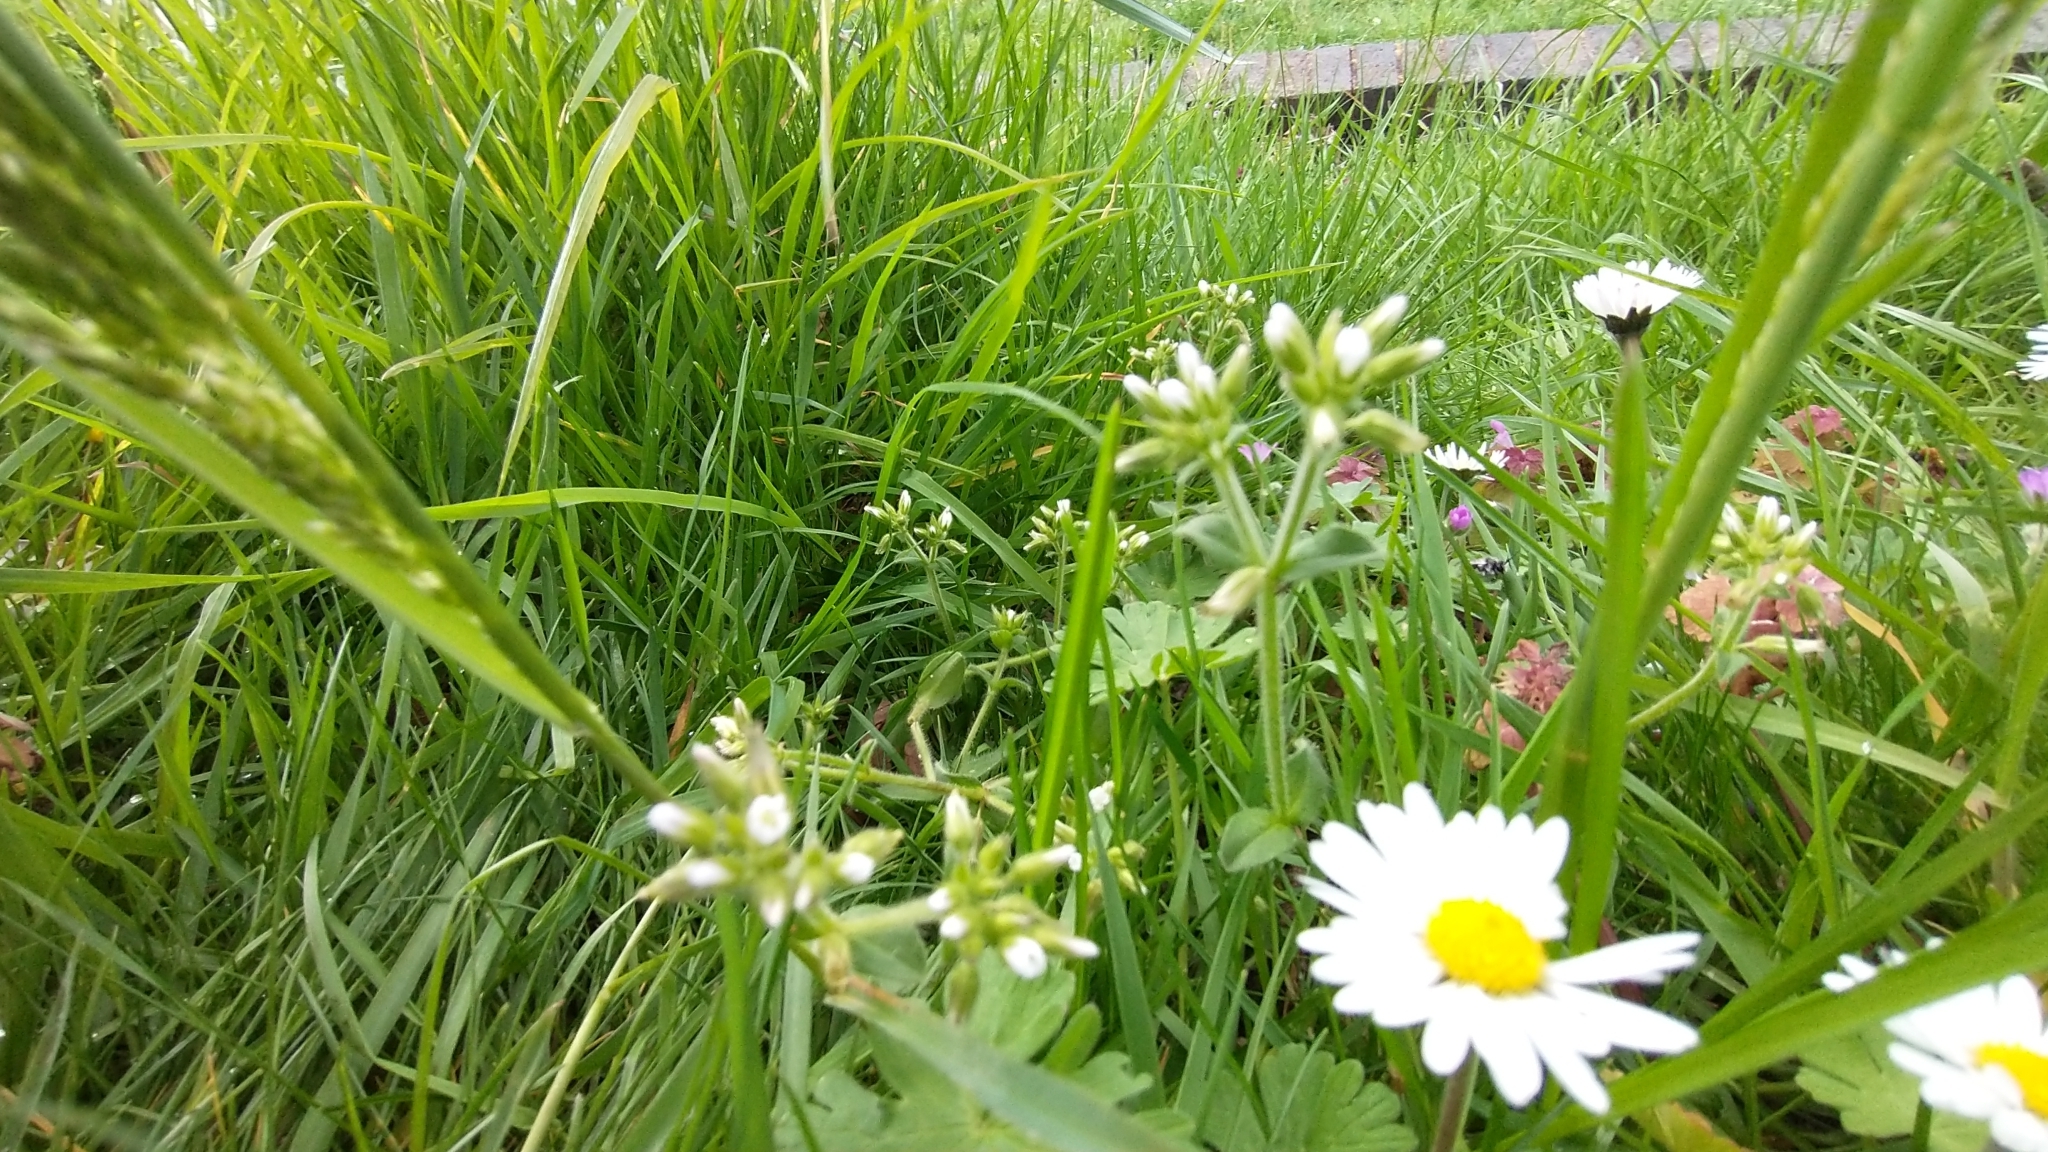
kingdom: Plantae
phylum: Tracheophyta
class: Magnoliopsida
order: Caryophyllales
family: Caryophyllaceae
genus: Cerastium
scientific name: Cerastium glomeratum
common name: Sticky chickweed
